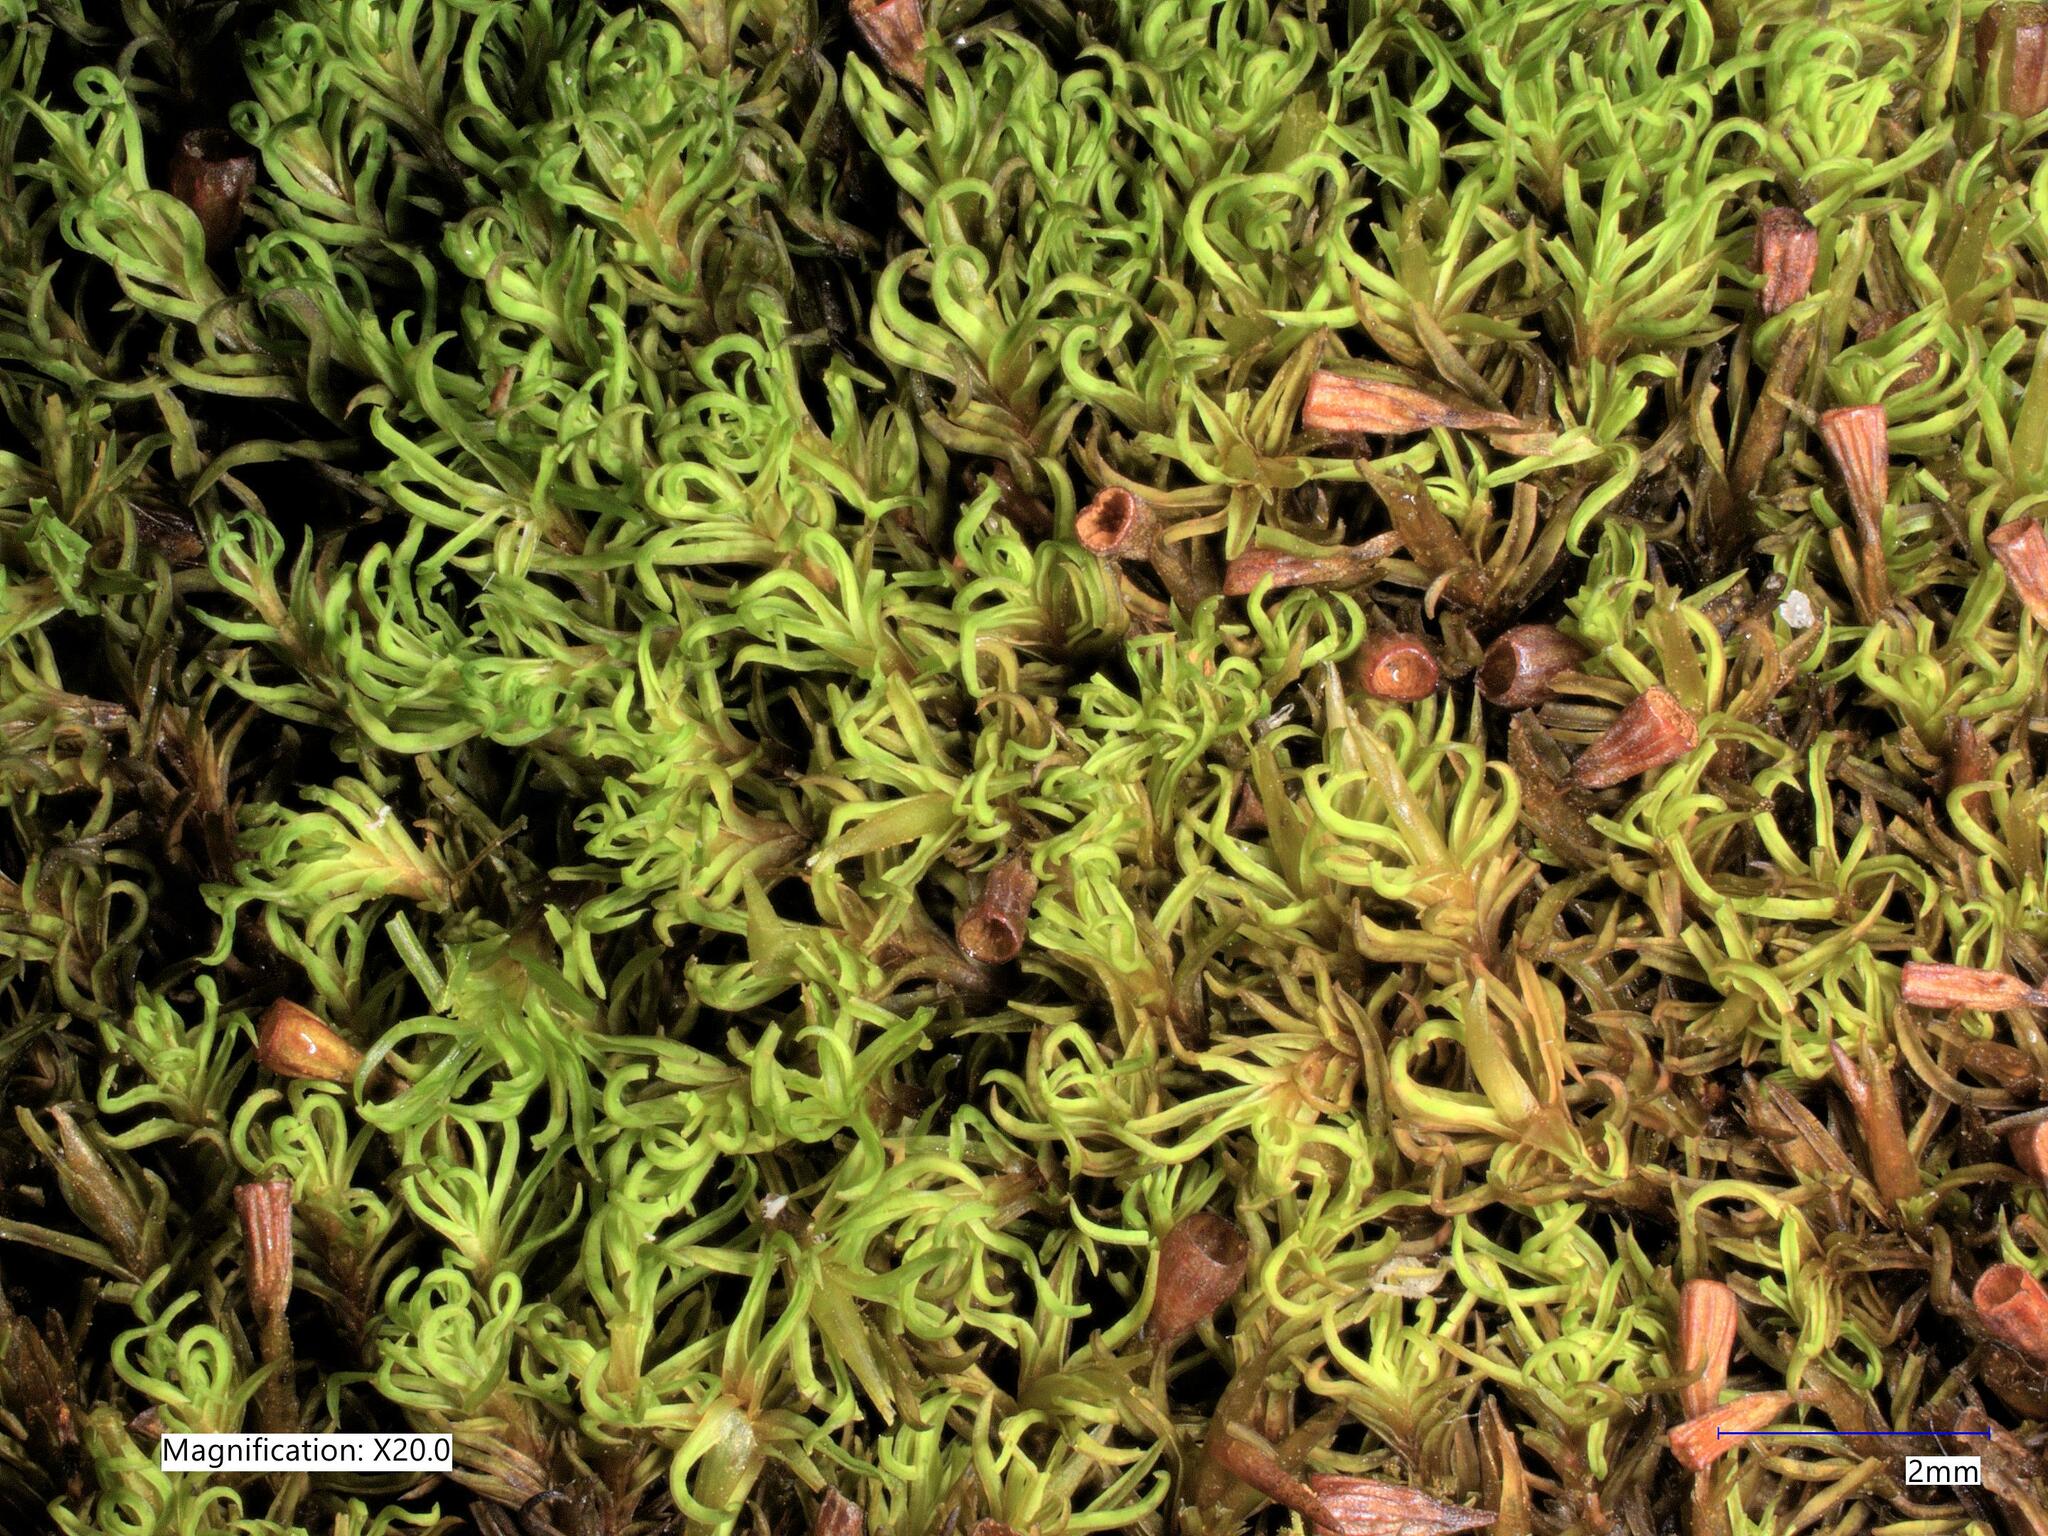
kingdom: Plantae
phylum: Bryophyta
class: Bryopsida
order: Dicranales
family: Amphidiaceae
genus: Amphidium
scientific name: Amphidium lapponicum
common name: Lapland yoke moss
